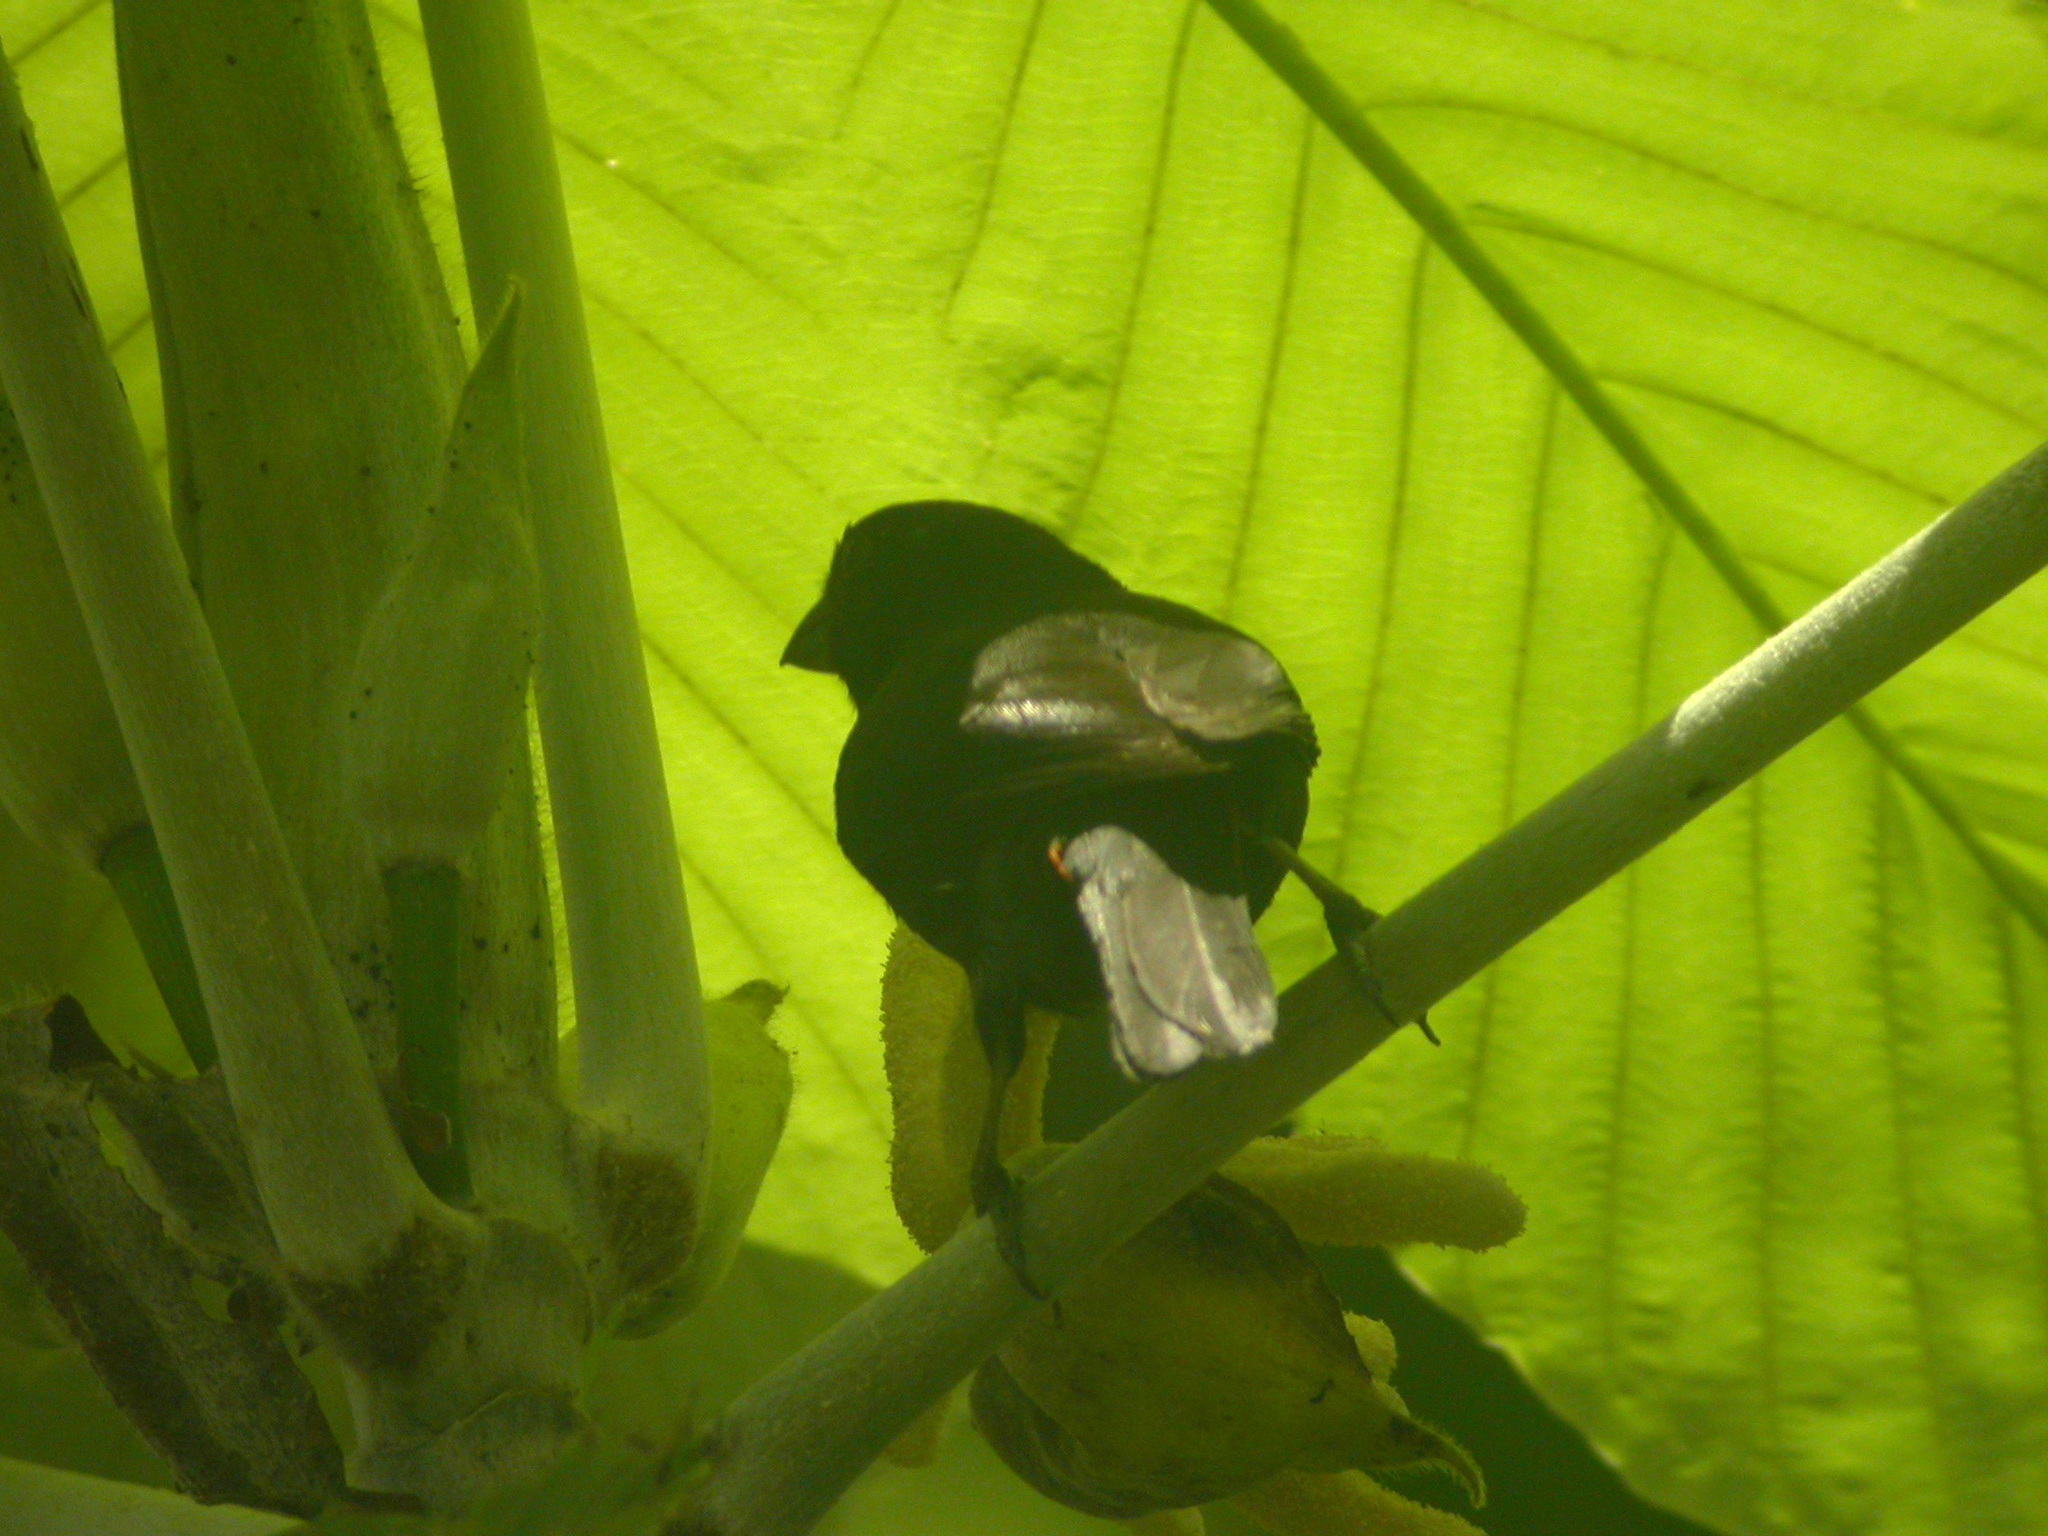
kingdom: Animalia
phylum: Chordata
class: Aves
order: Passeriformes
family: Thraupidae
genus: Loxigilla
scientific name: Loxigilla noctis
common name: Lesser antillean bullfinch
